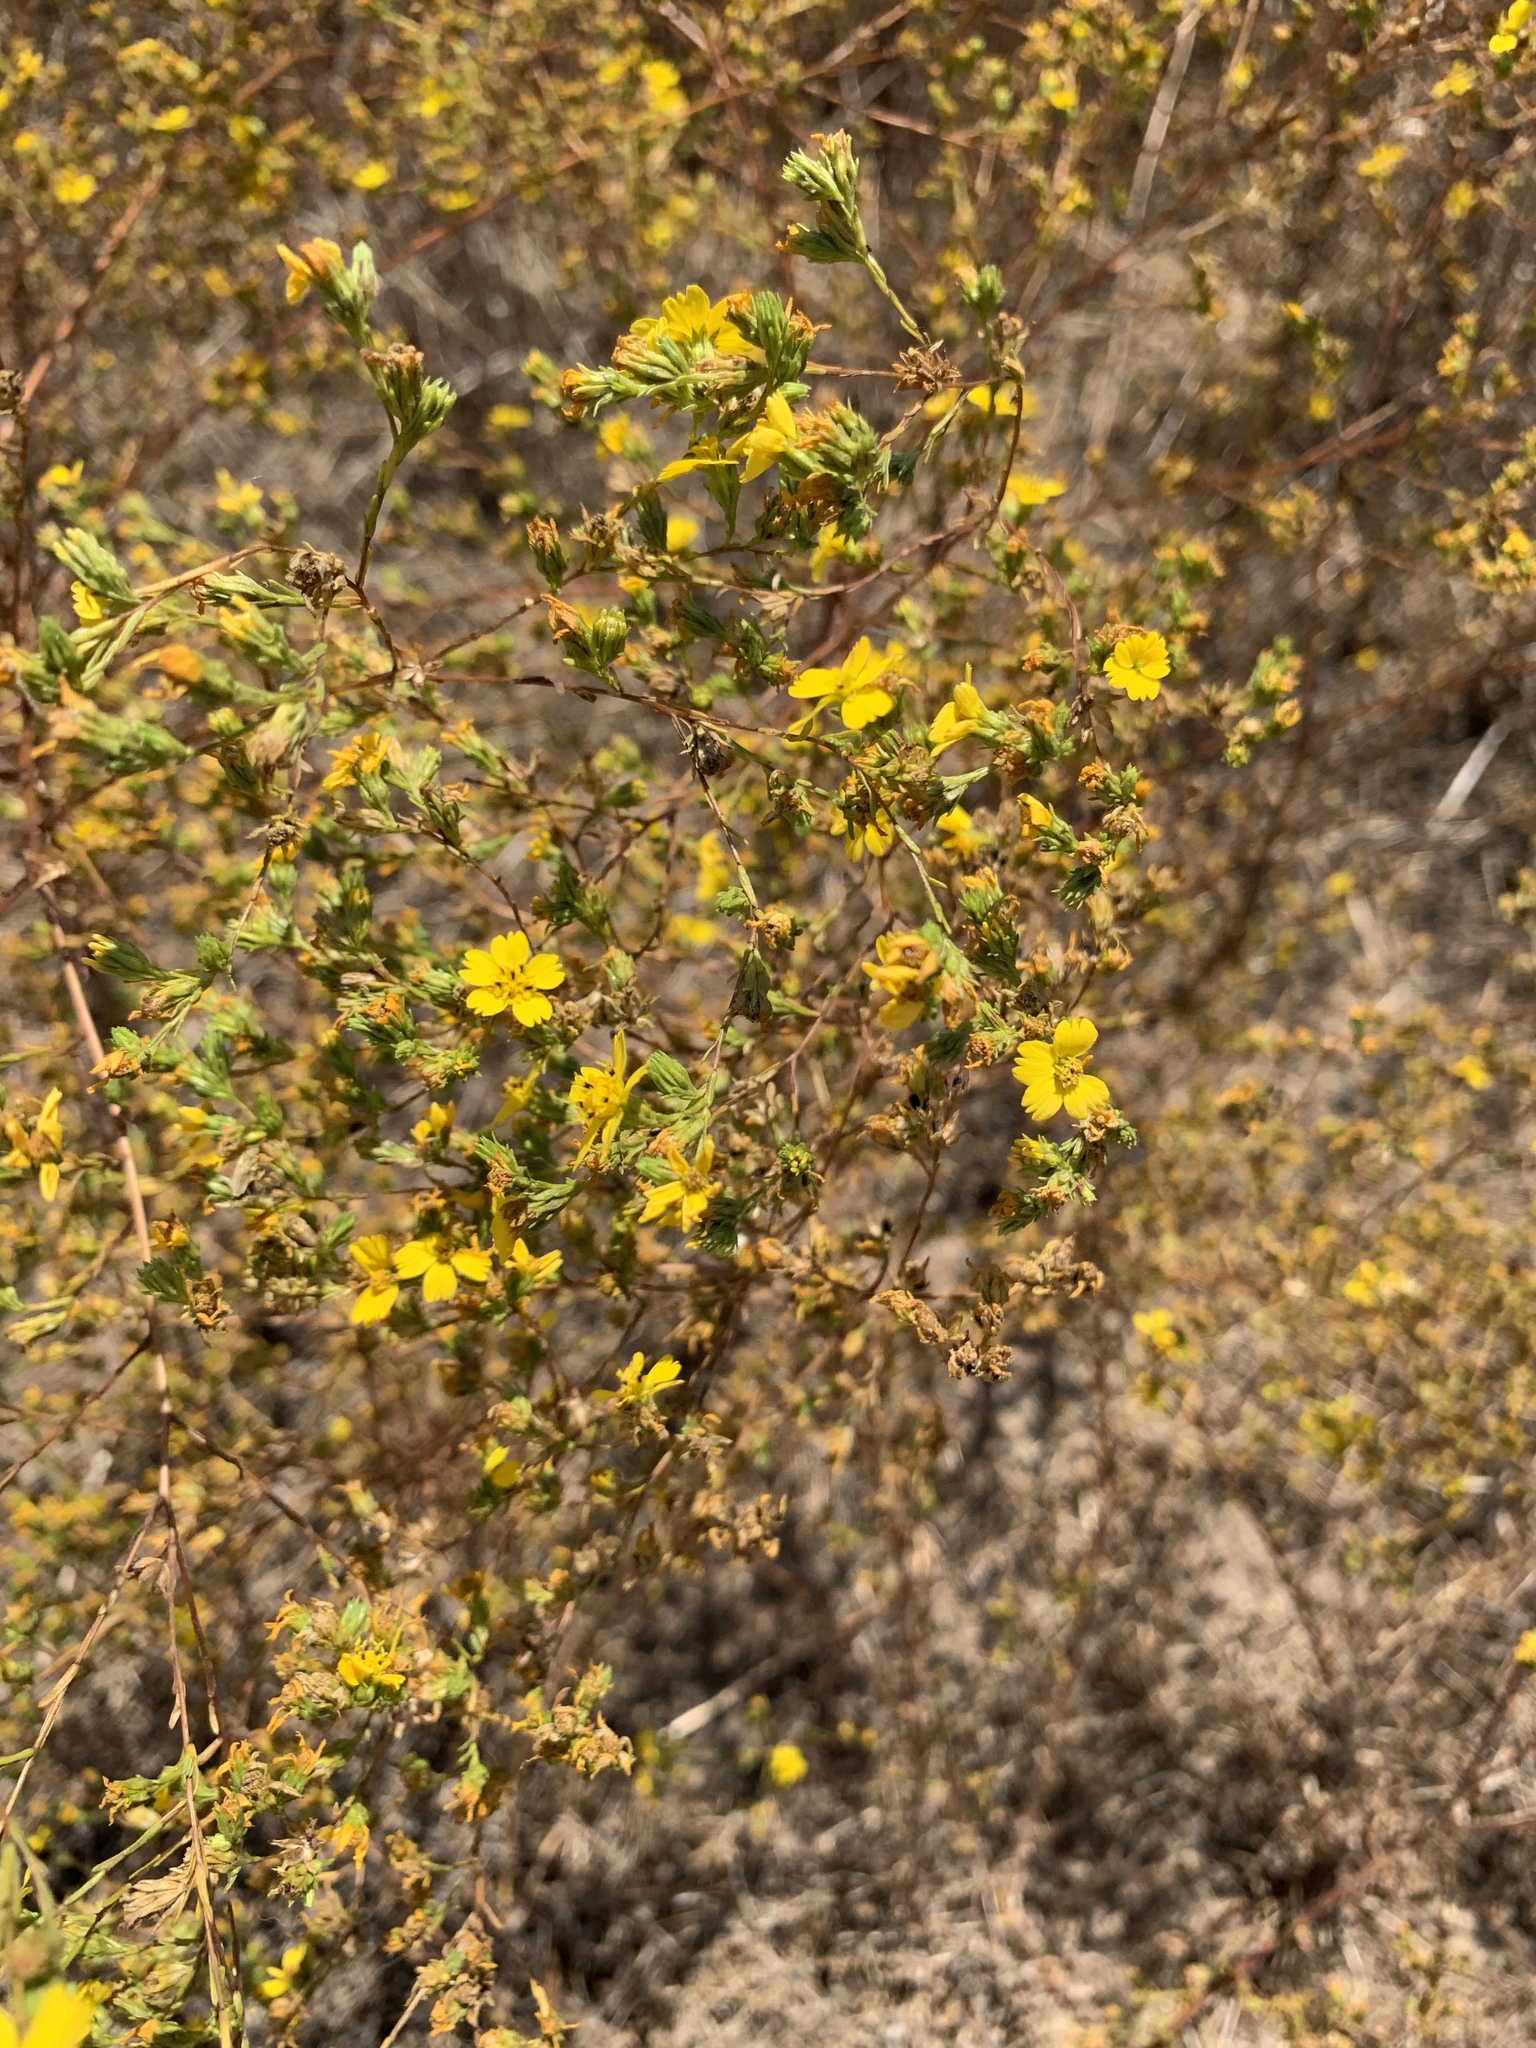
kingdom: Plantae
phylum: Tracheophyta
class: Magnoliopsida
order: Asterales
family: Asteraceae
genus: Deinandra
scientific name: Deinandra fasciculata
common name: Clustered tarweed
